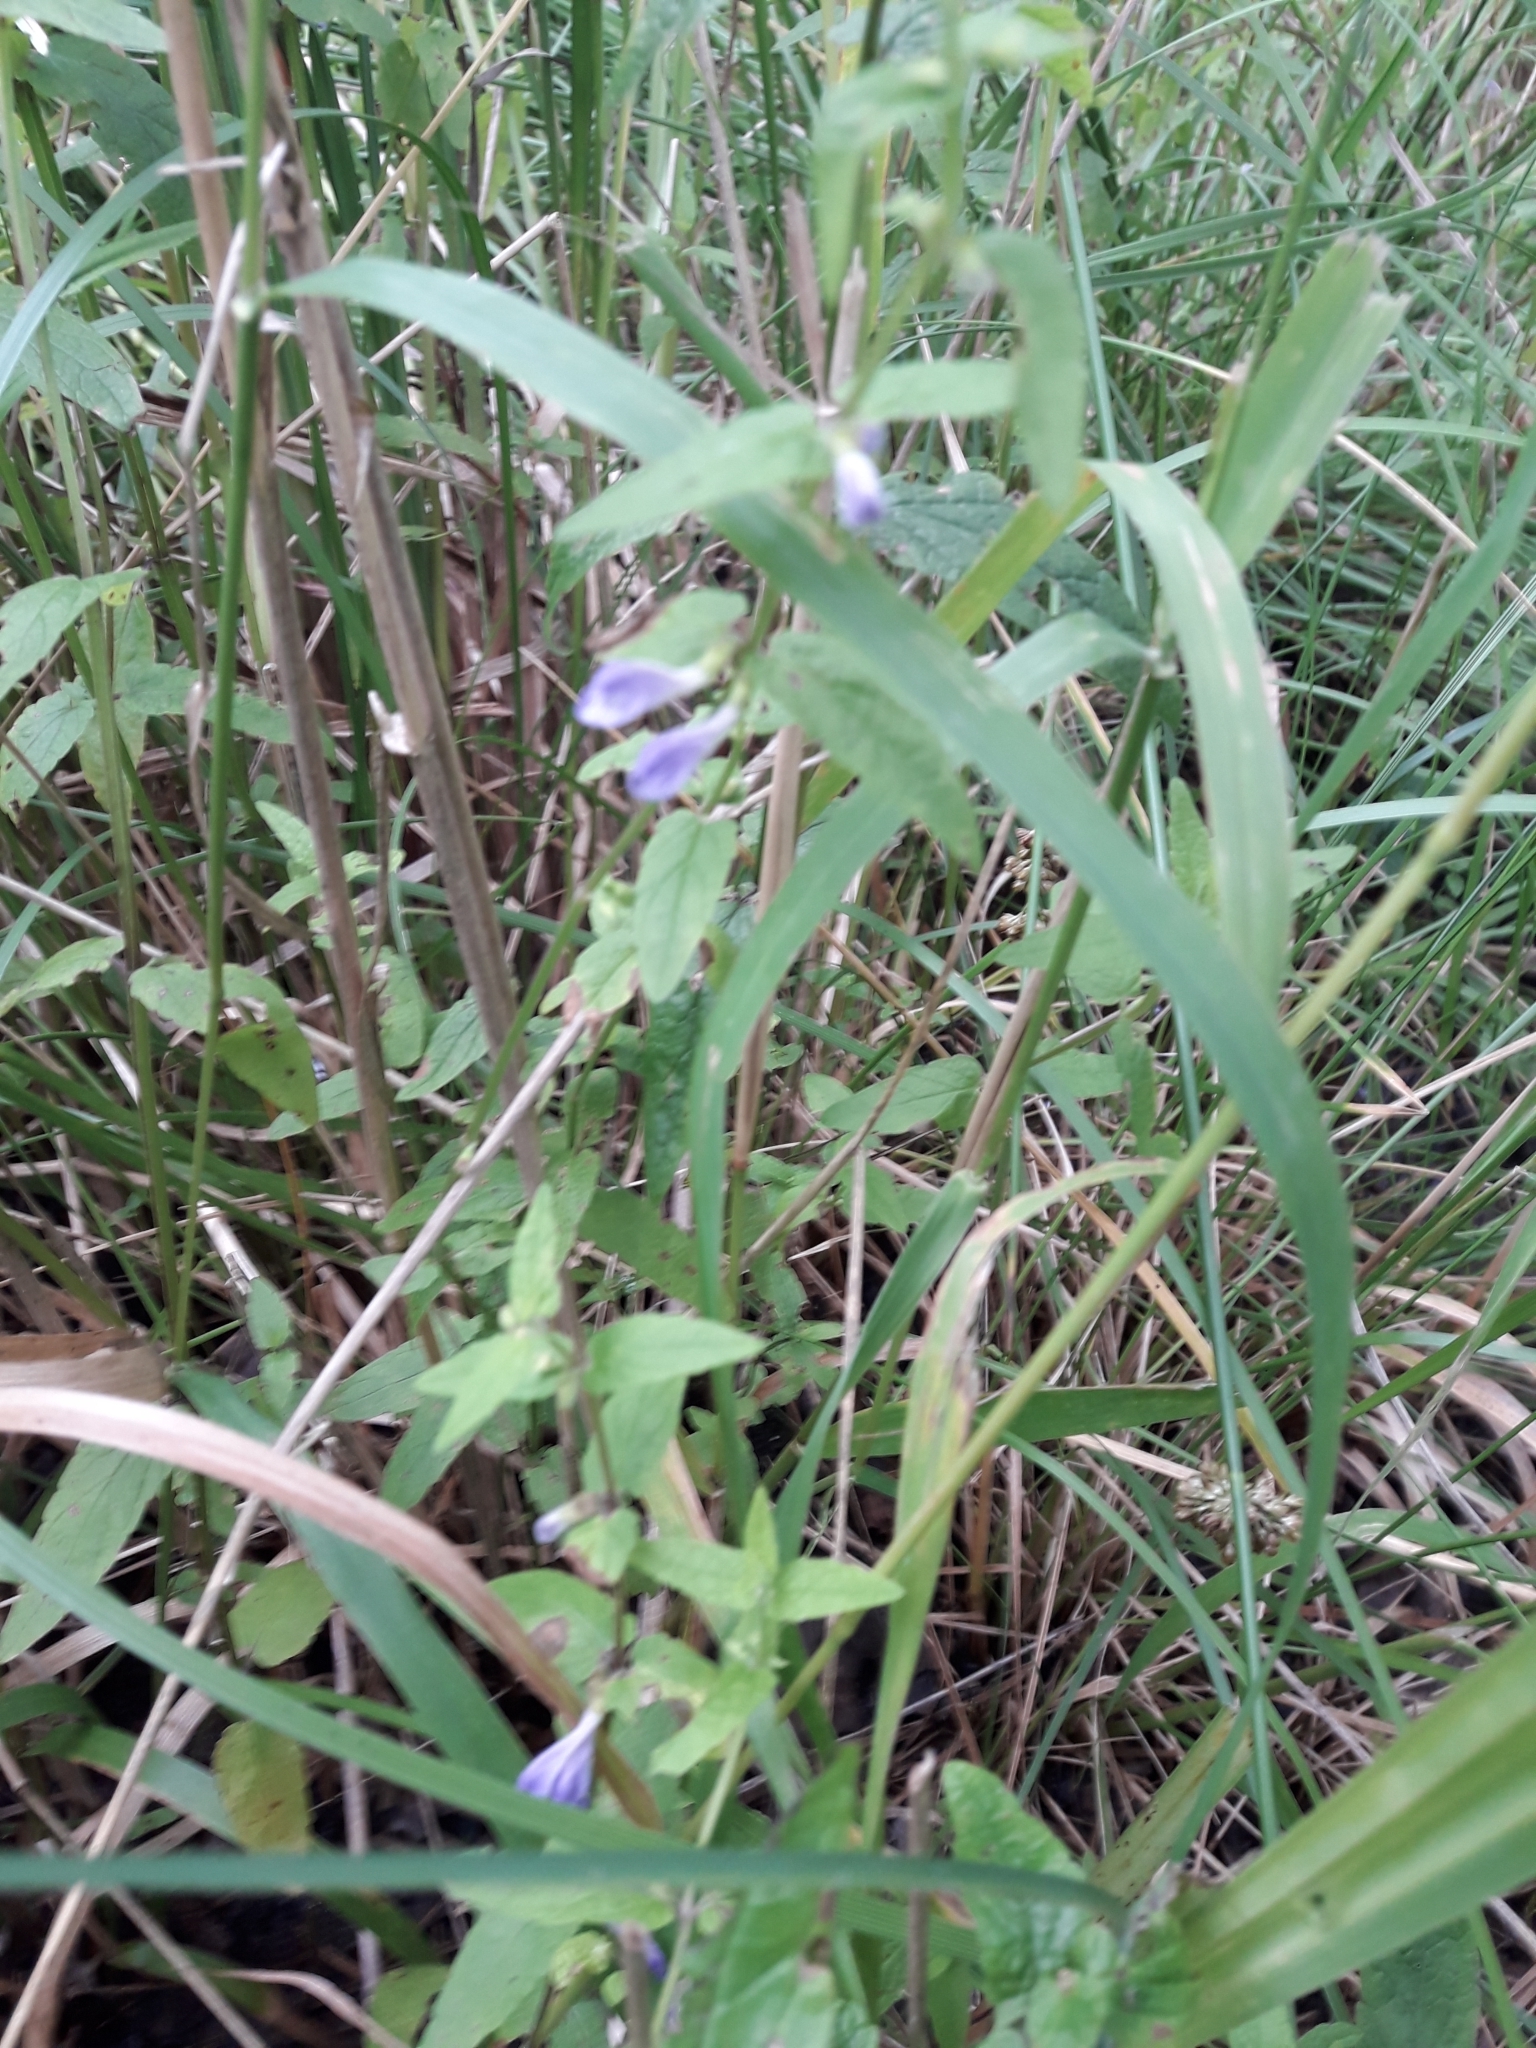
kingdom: Plantae
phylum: Tracheophyta
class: Magnoliopsida
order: Lamiales
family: Lamiaceae
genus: Scutellaria
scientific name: Scutellaria galericulata
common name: Skullcap
